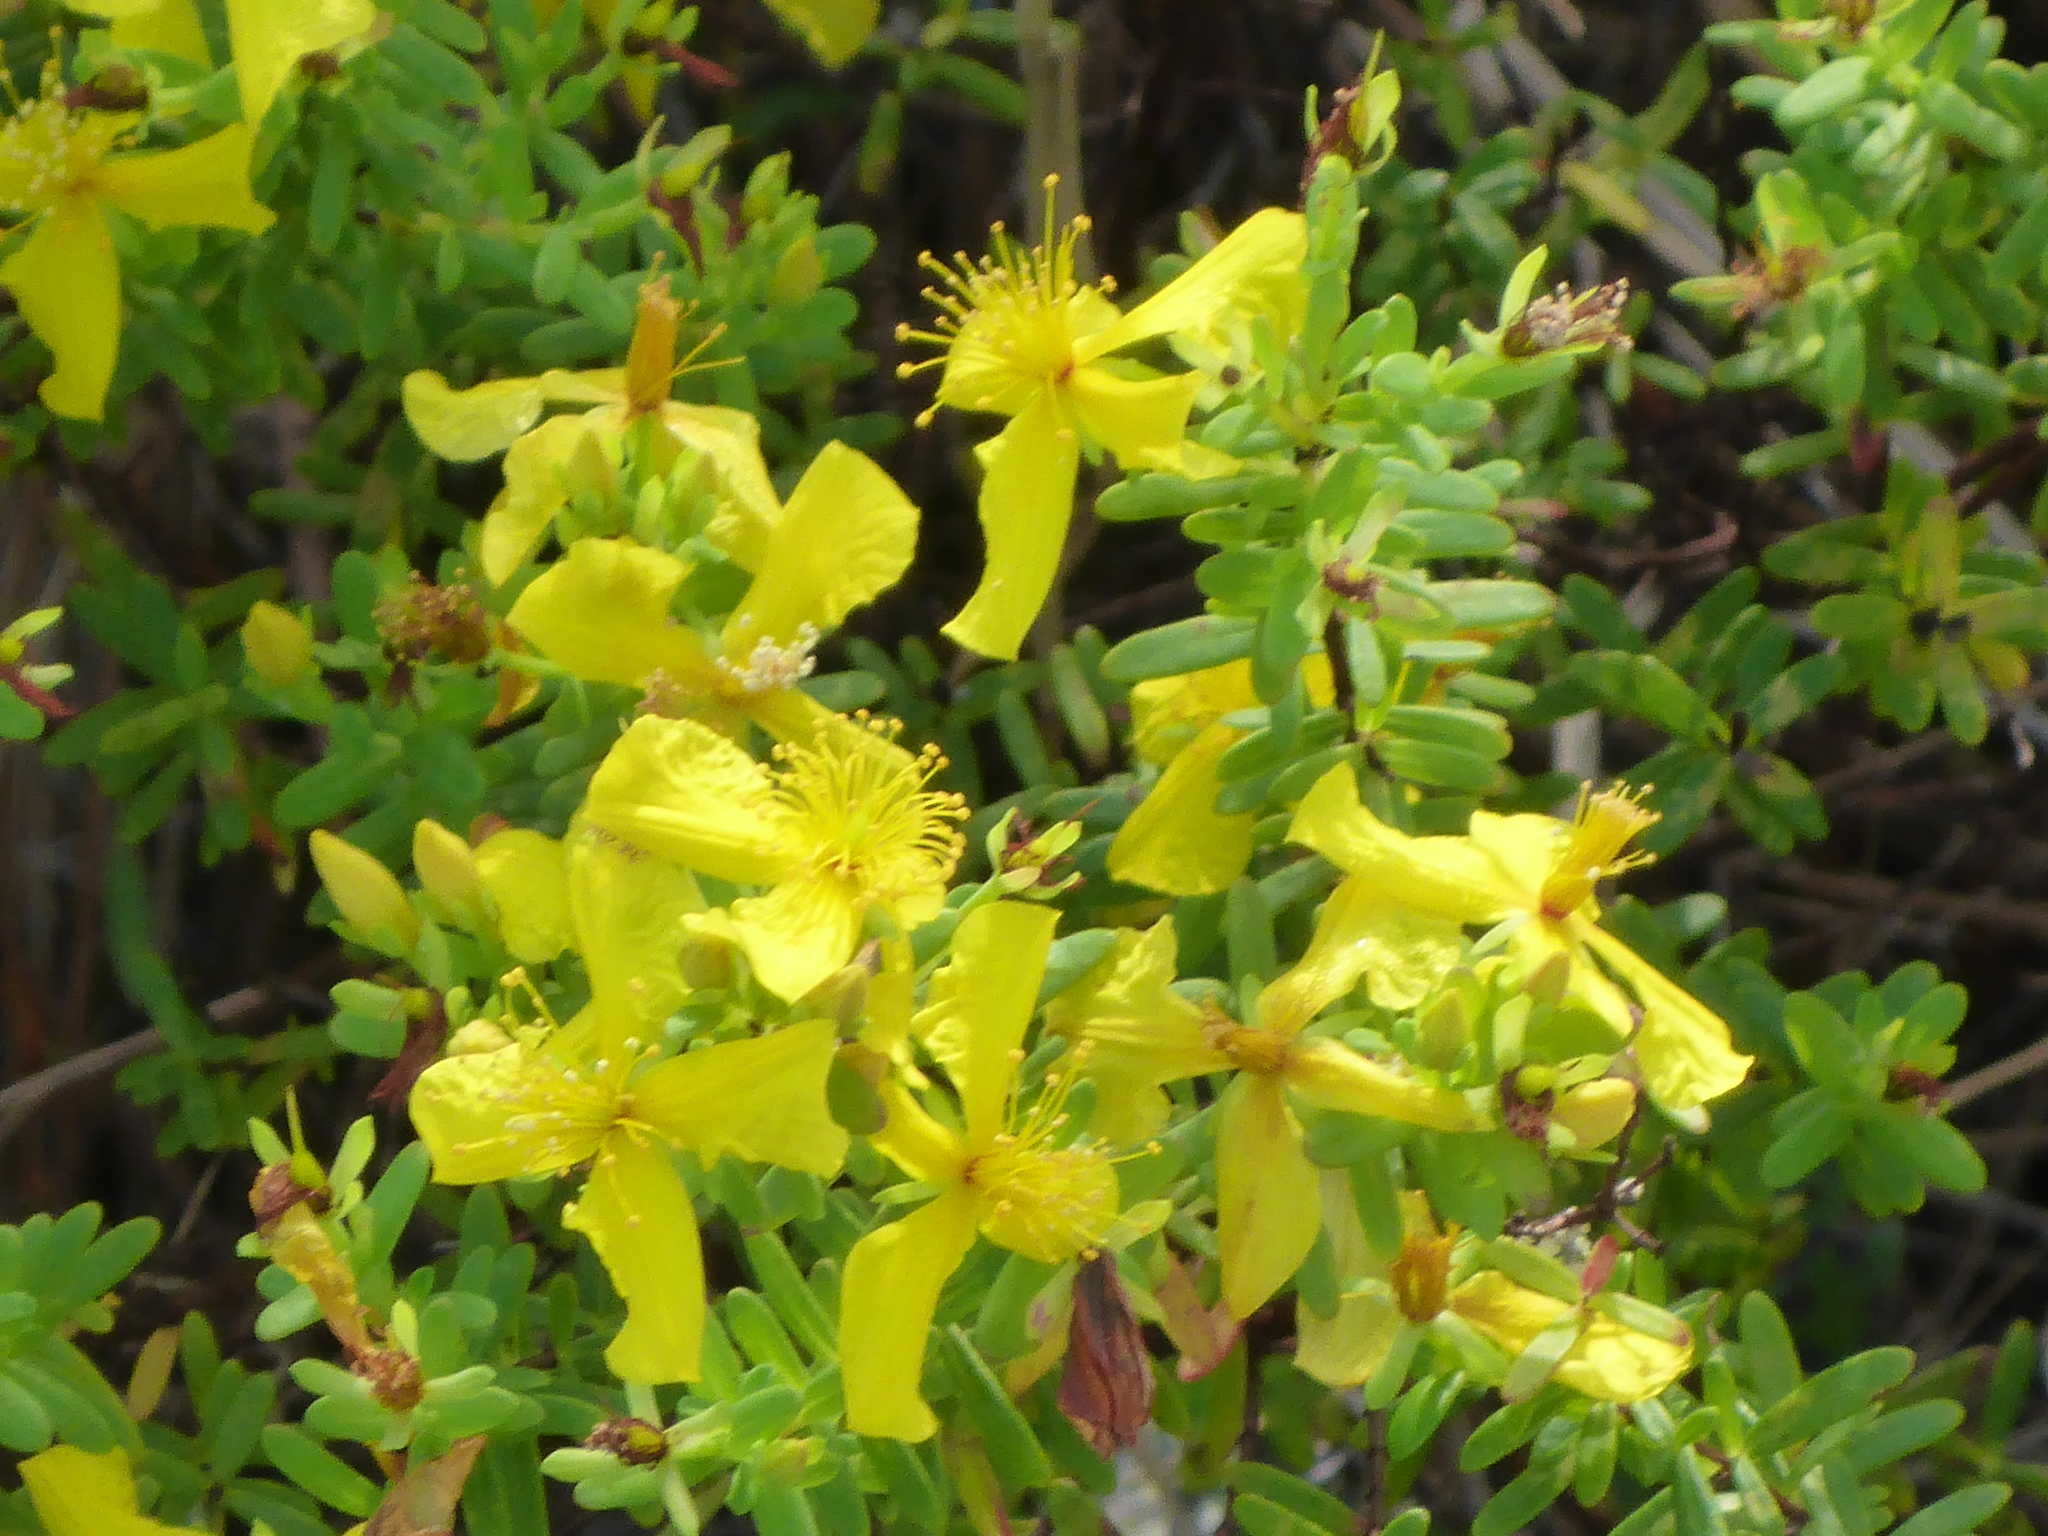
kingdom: Plantae
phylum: Tracheophyta
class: Magnoliopsida
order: Malpighiales
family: Hypericaceae
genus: Hypericum
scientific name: Hypericum microsepalum
